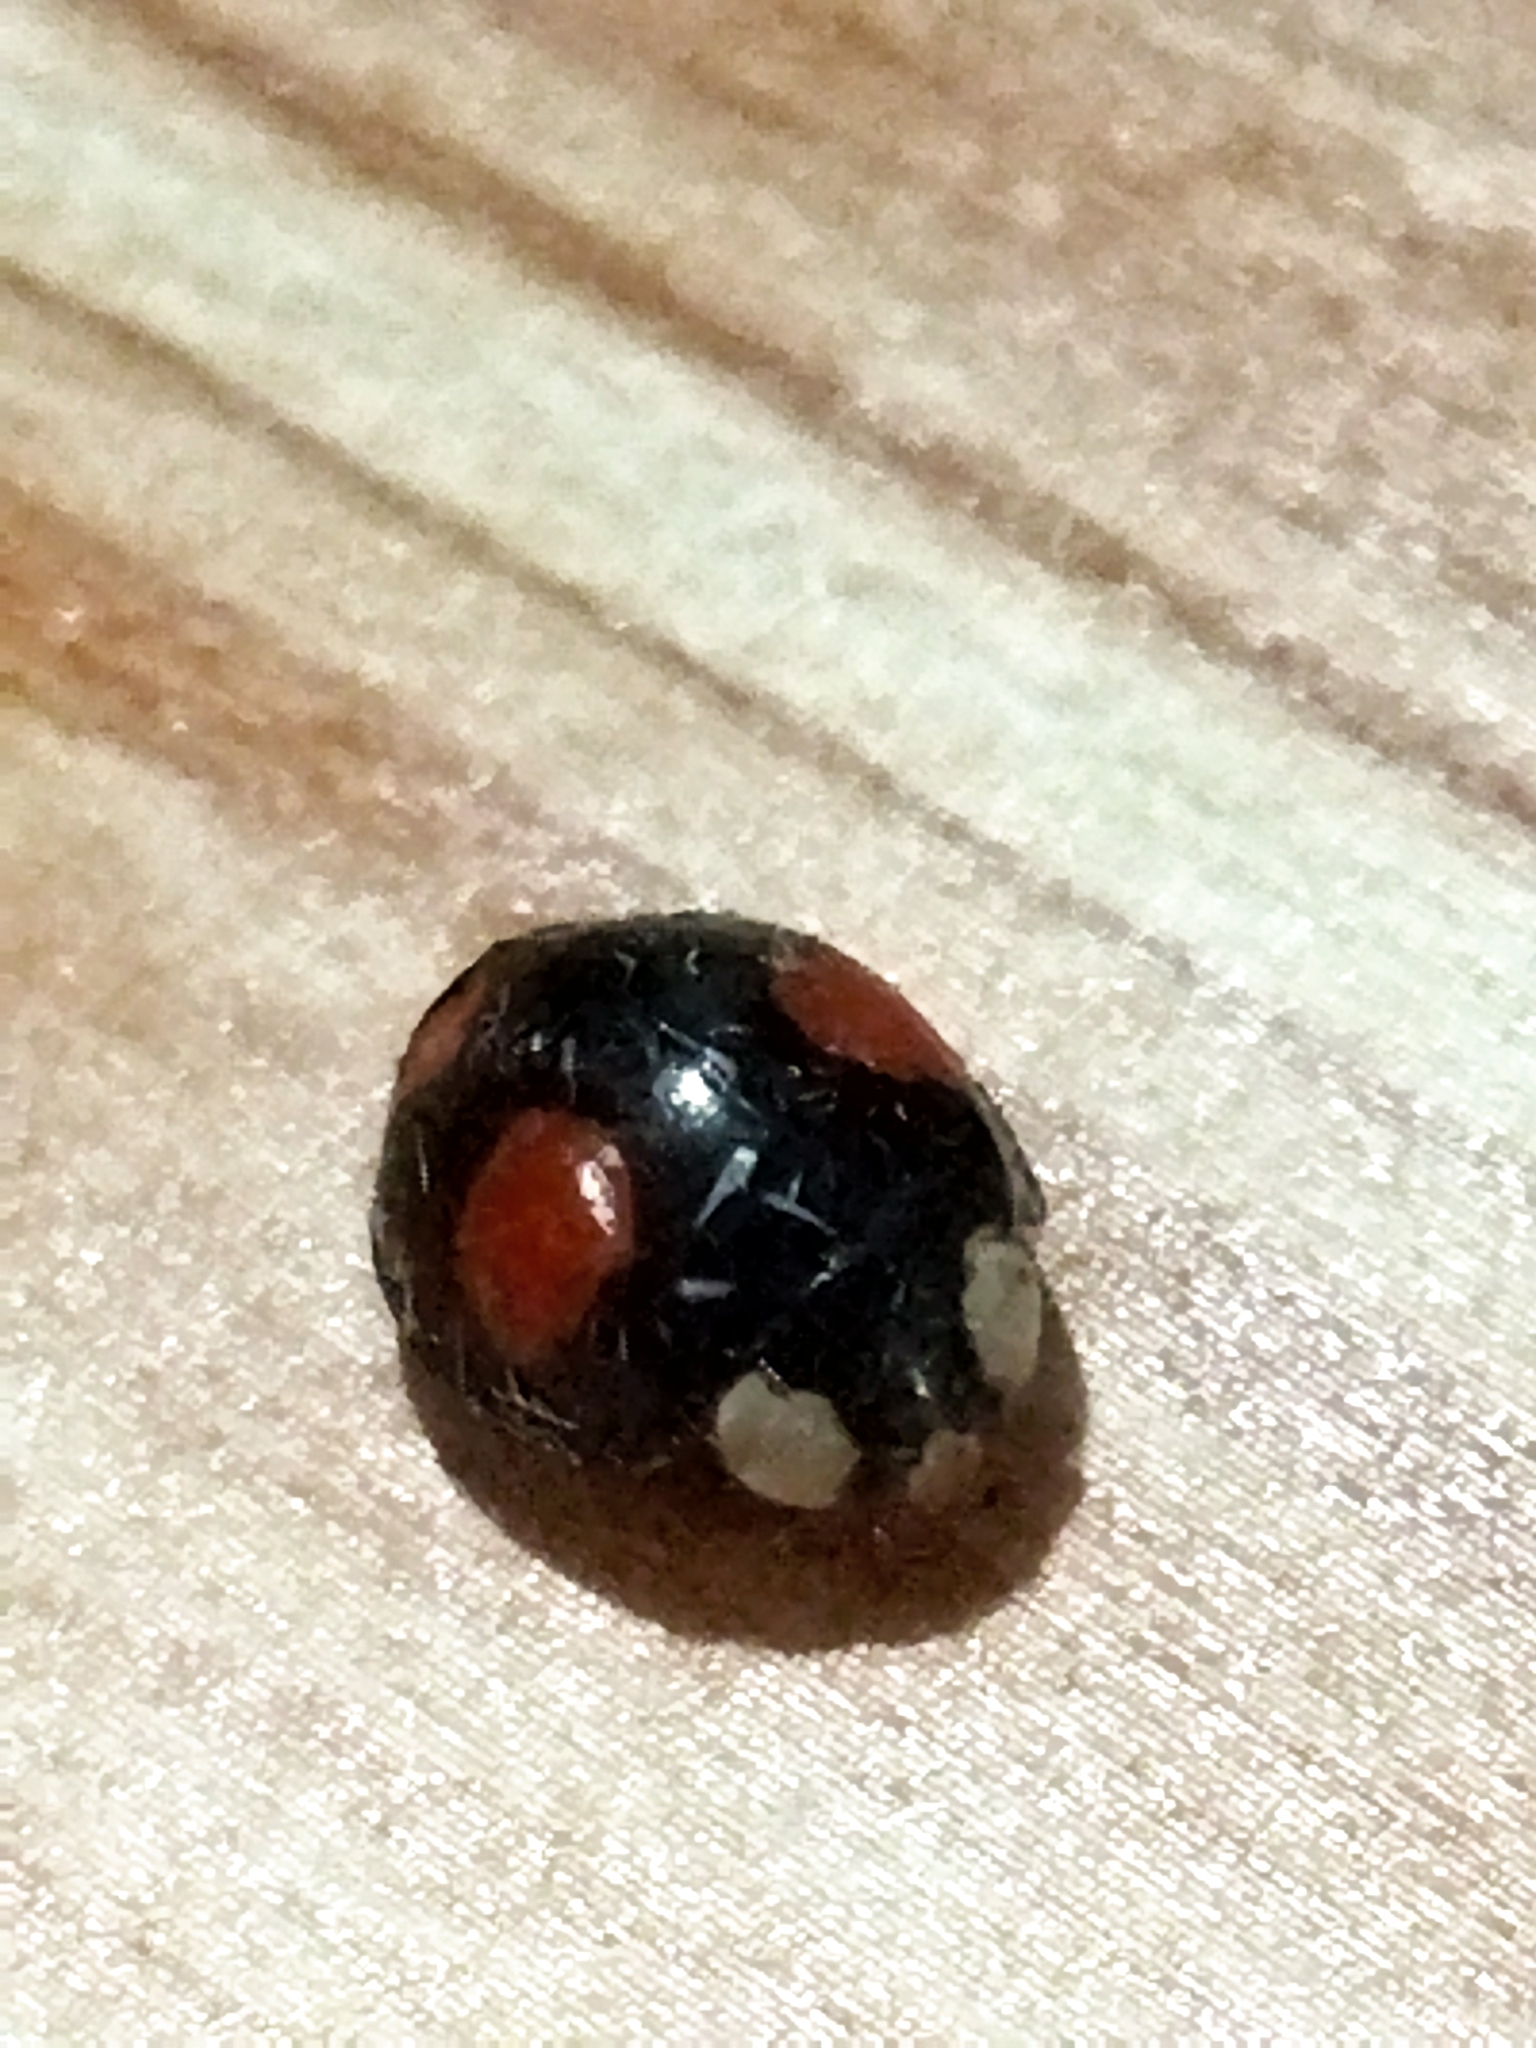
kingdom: Animalia
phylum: Arthropoda
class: Insecta
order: Coleoptera
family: Coccinellidae
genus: Harmonia
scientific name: Harmonia axyridis
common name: Harlequin ladybird
